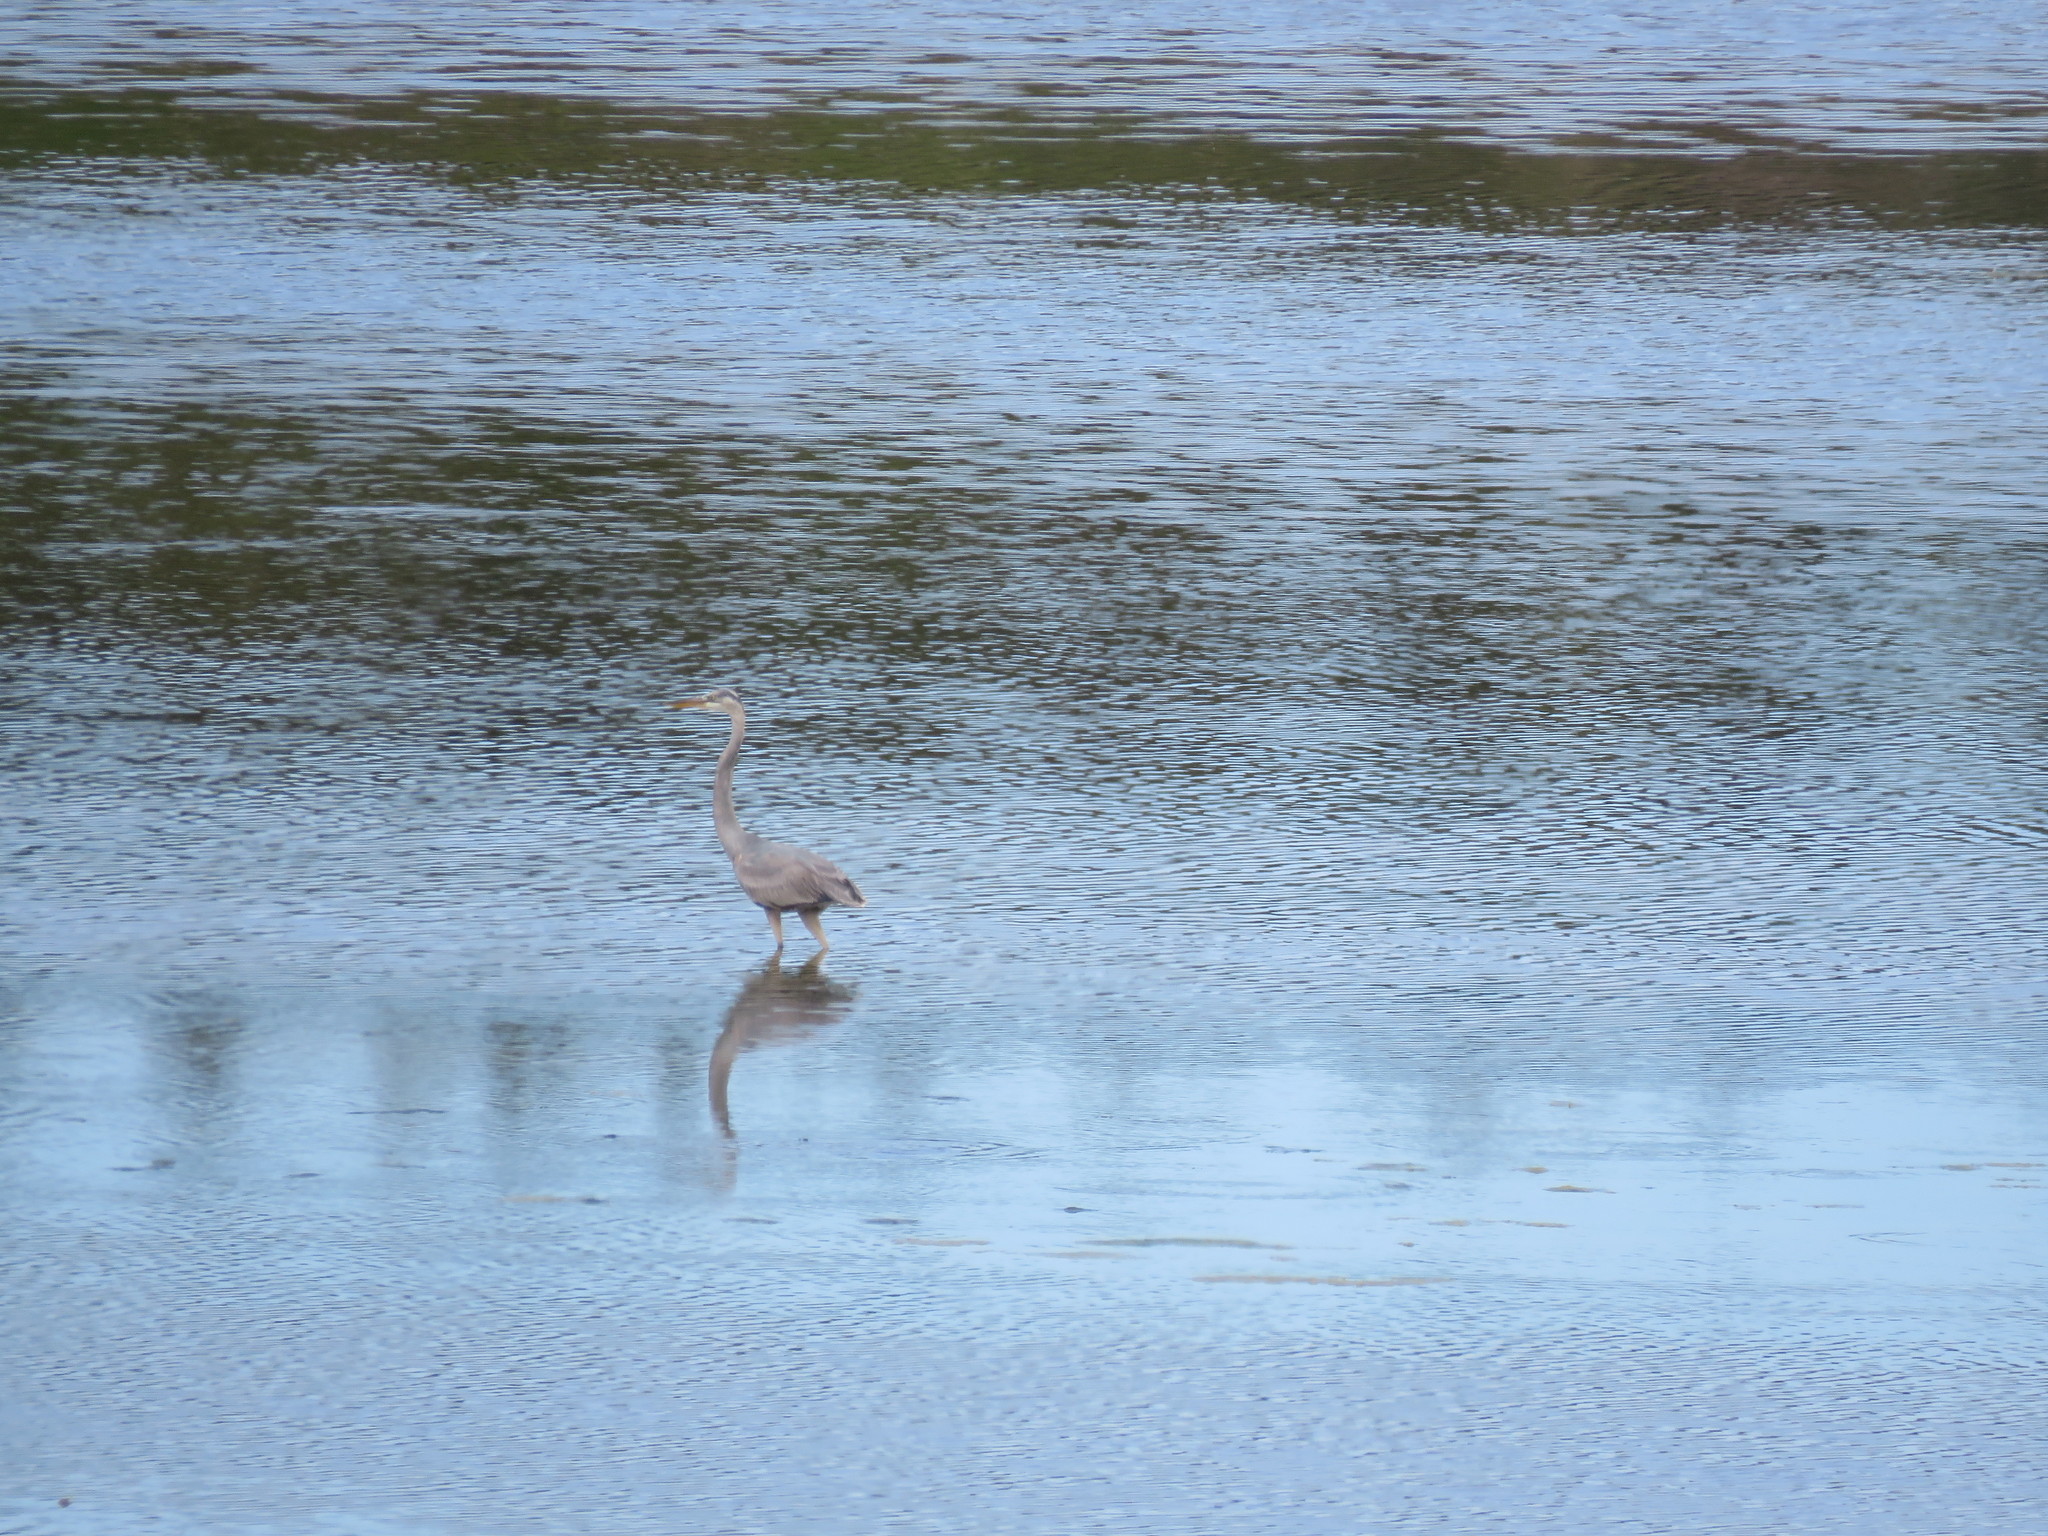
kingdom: Animalia
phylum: Chordata
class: Aves
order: Pelecaniformes
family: Ardeidae
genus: Ardea
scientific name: Ardea herodias
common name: Great blue heron
